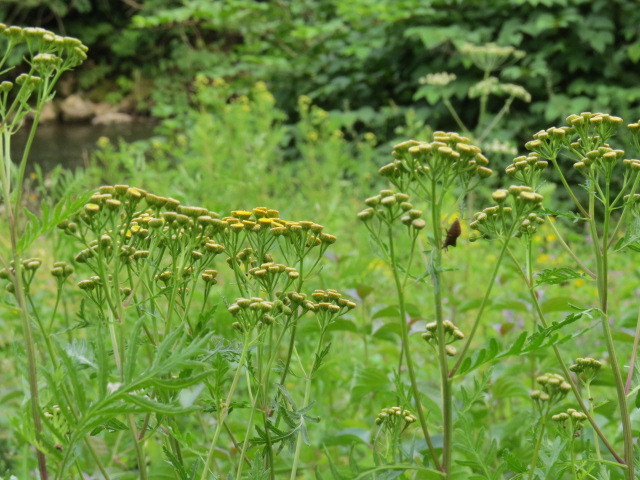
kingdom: Plantae
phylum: Tracheophyta
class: Magnoliopsida
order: Asterales
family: Asteraceae
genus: Tanacetum
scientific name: Tanacetum vulgare
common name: Common tansy
